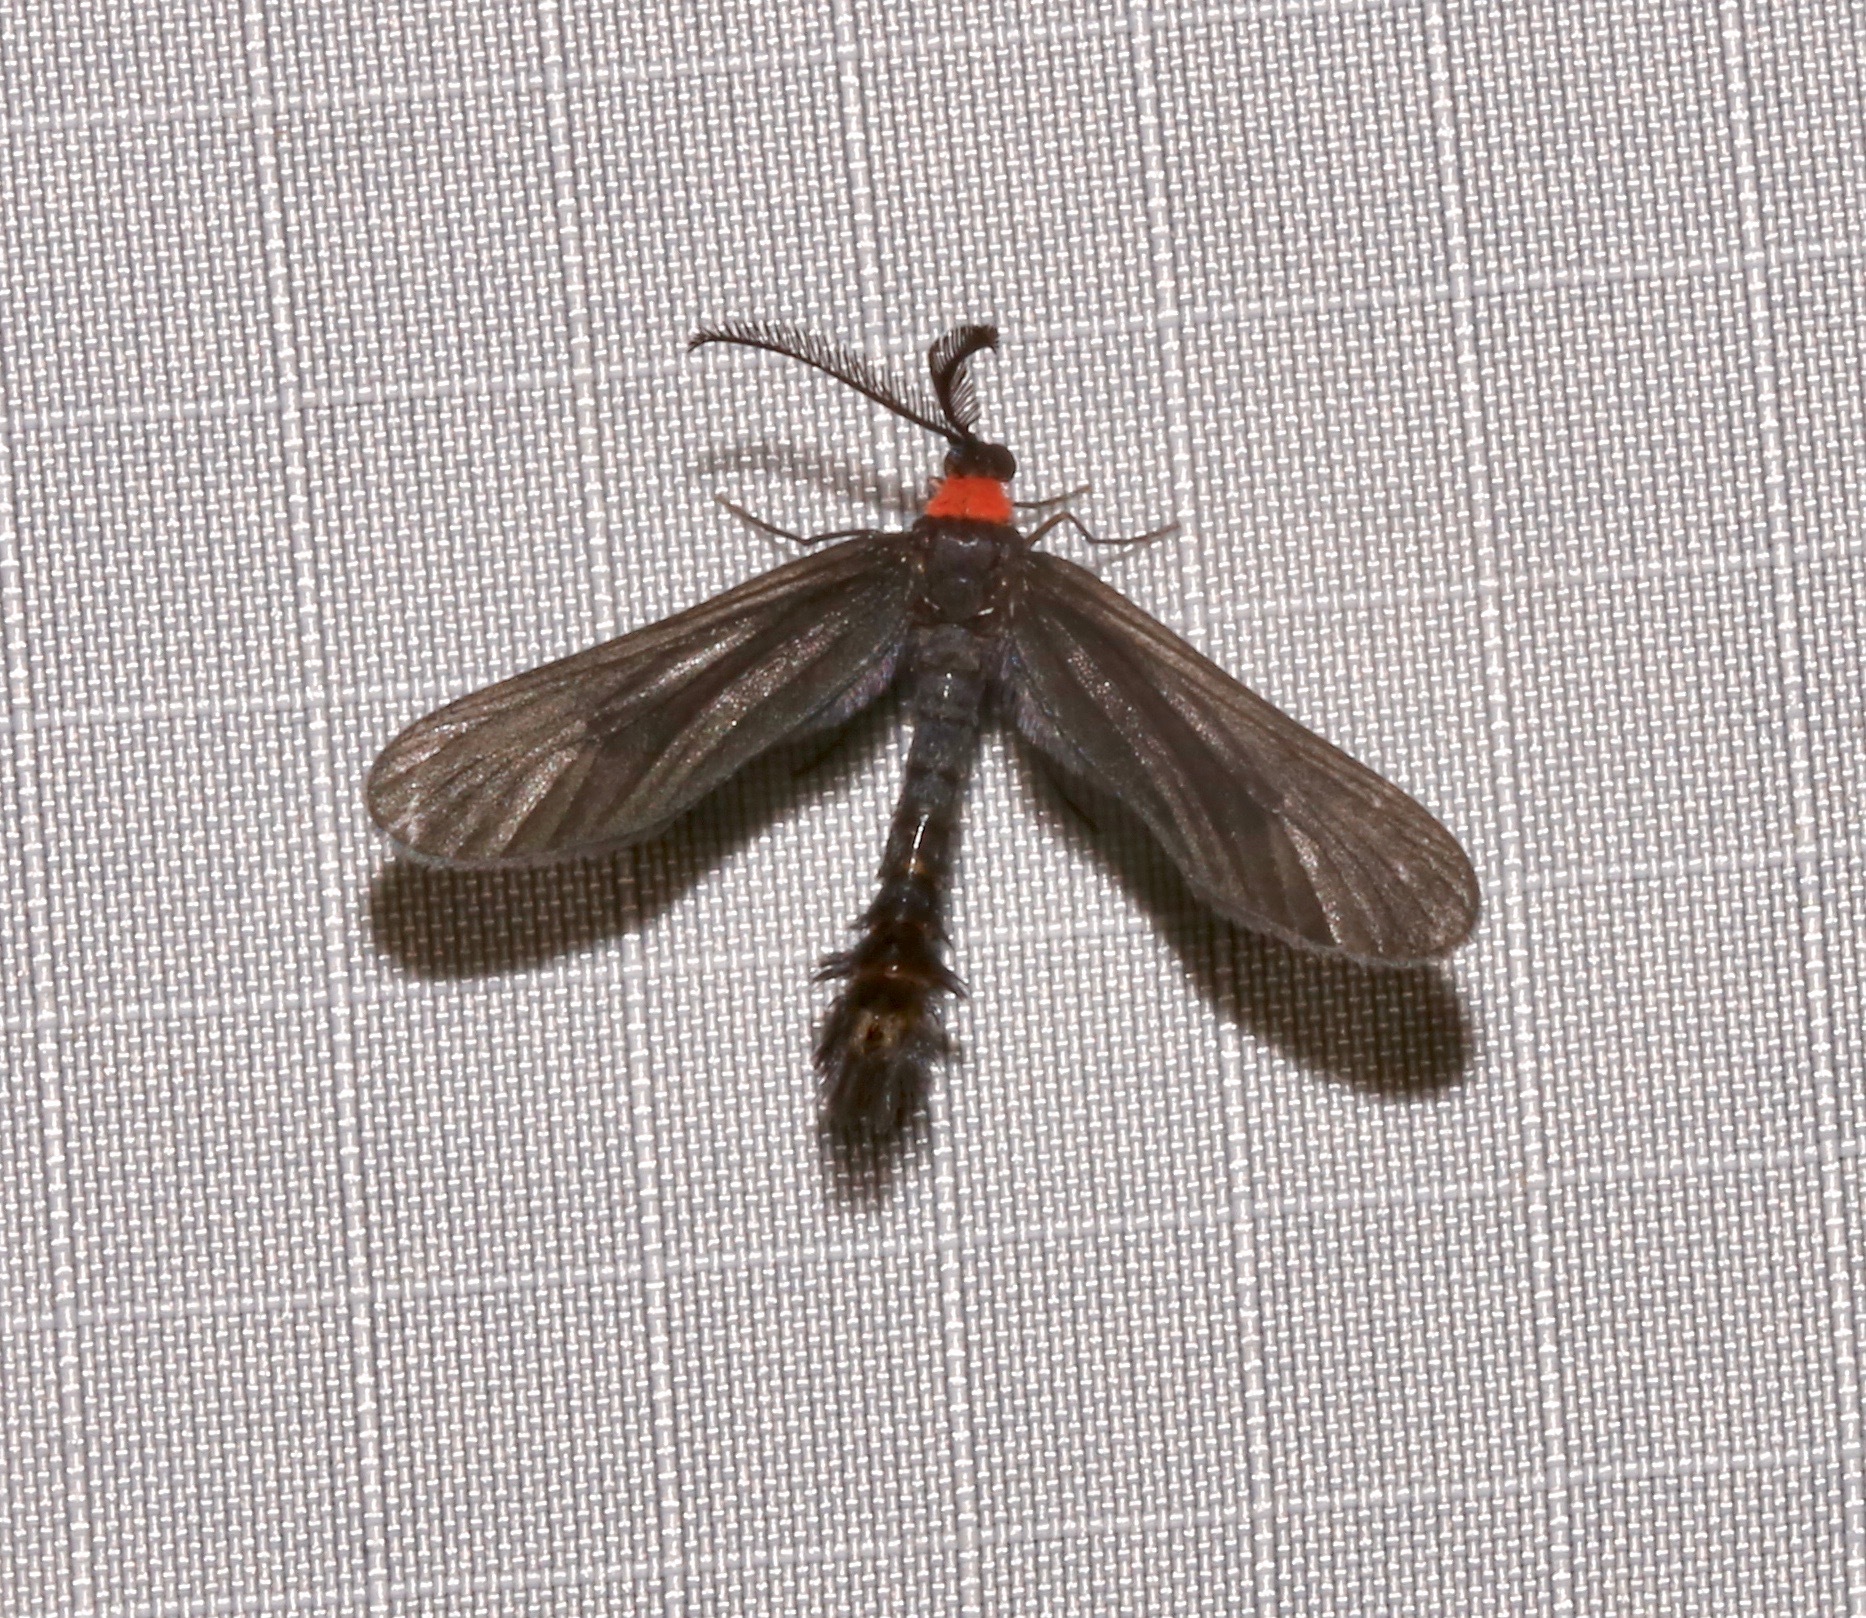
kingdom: Animalia
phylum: Arthropoda
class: Insecta
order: Lepidoptera
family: Zygaenidae
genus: Harrisina
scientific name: Harrisina americana
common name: Grapeleaf skeletonizer moth
